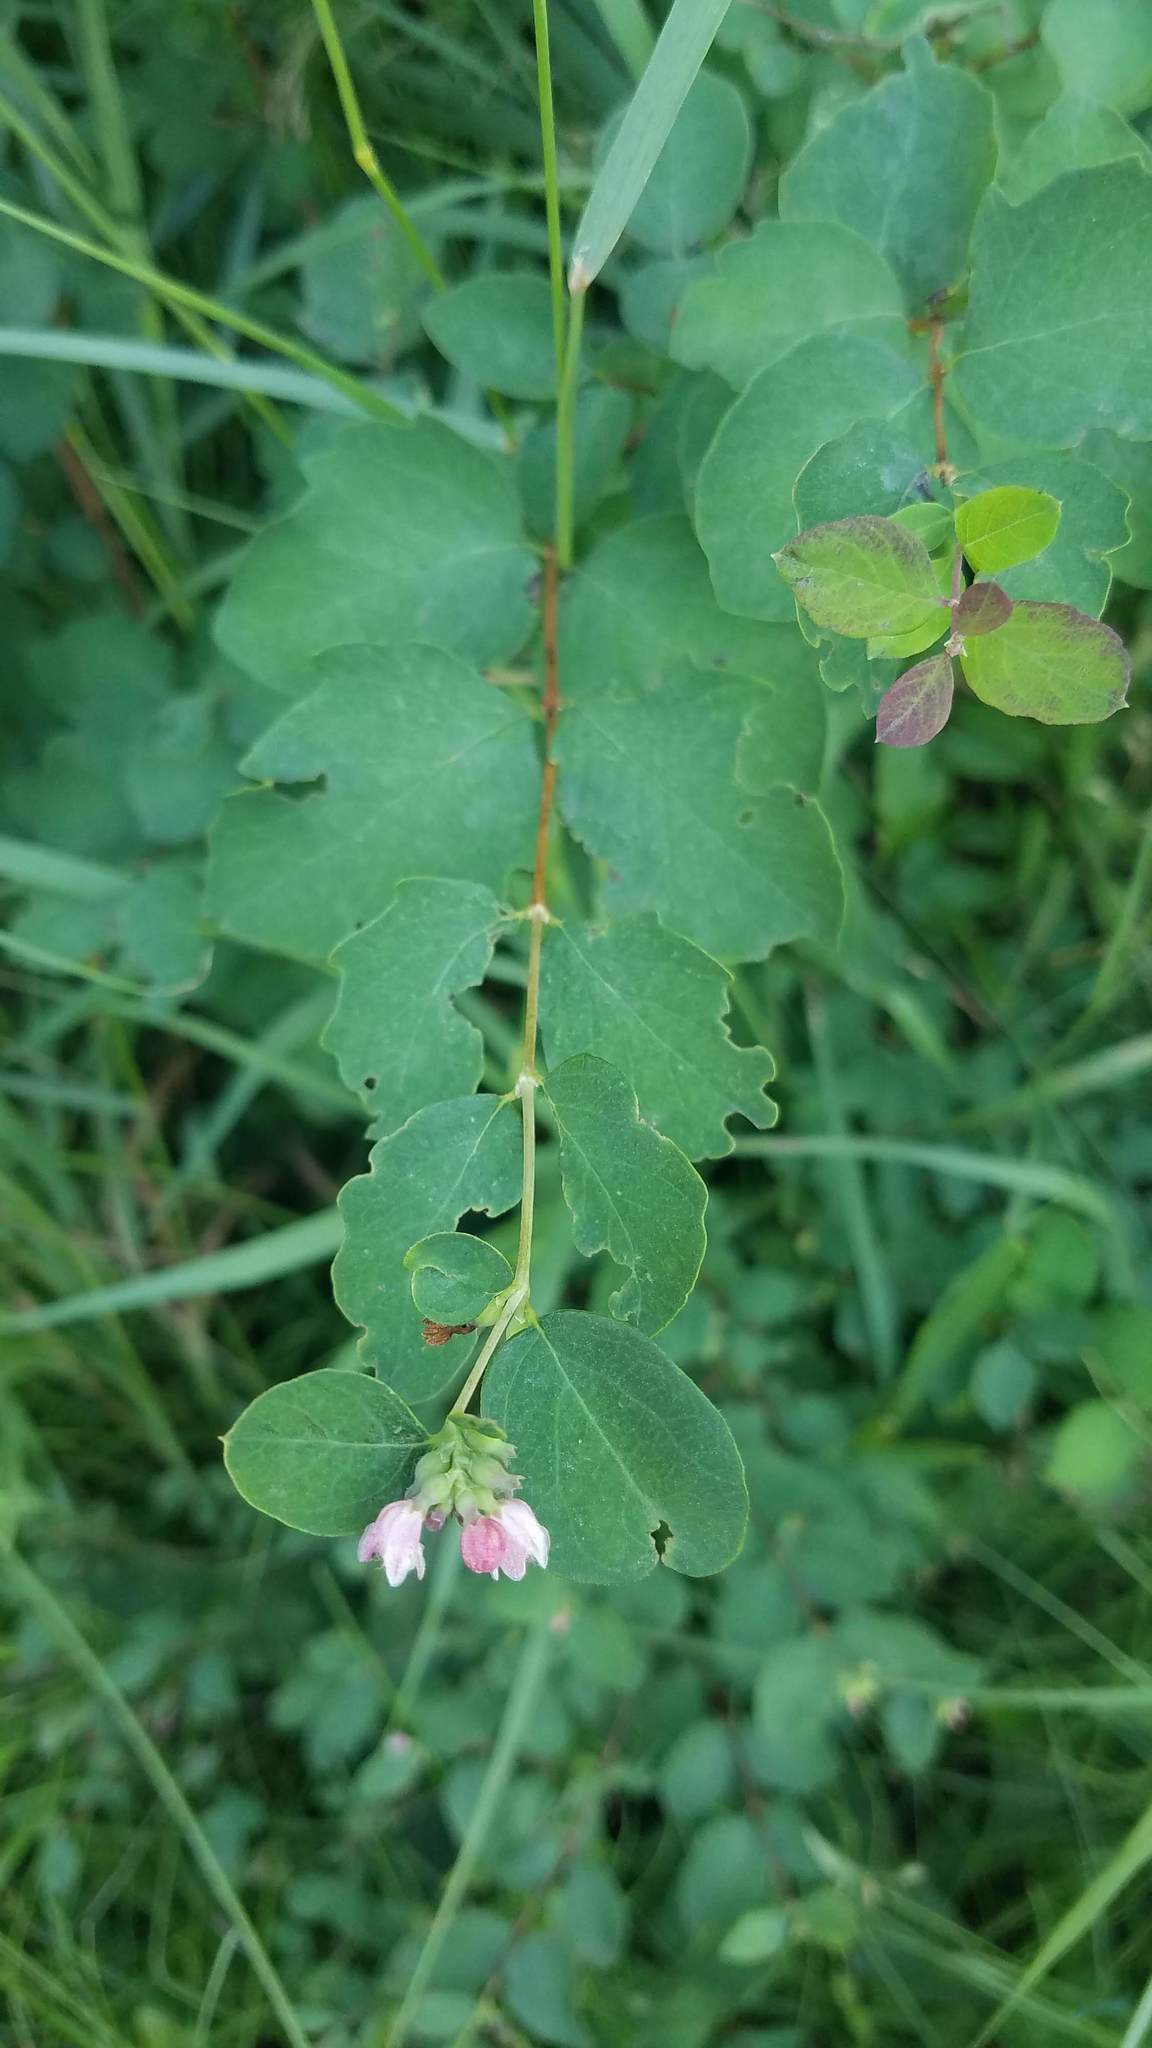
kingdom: Plantae
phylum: Tracheophyta
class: Magnoliopsida
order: Dipsacales
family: Caprifoliaceae
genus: Symphoricarpos
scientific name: Symphoricarpos albus
